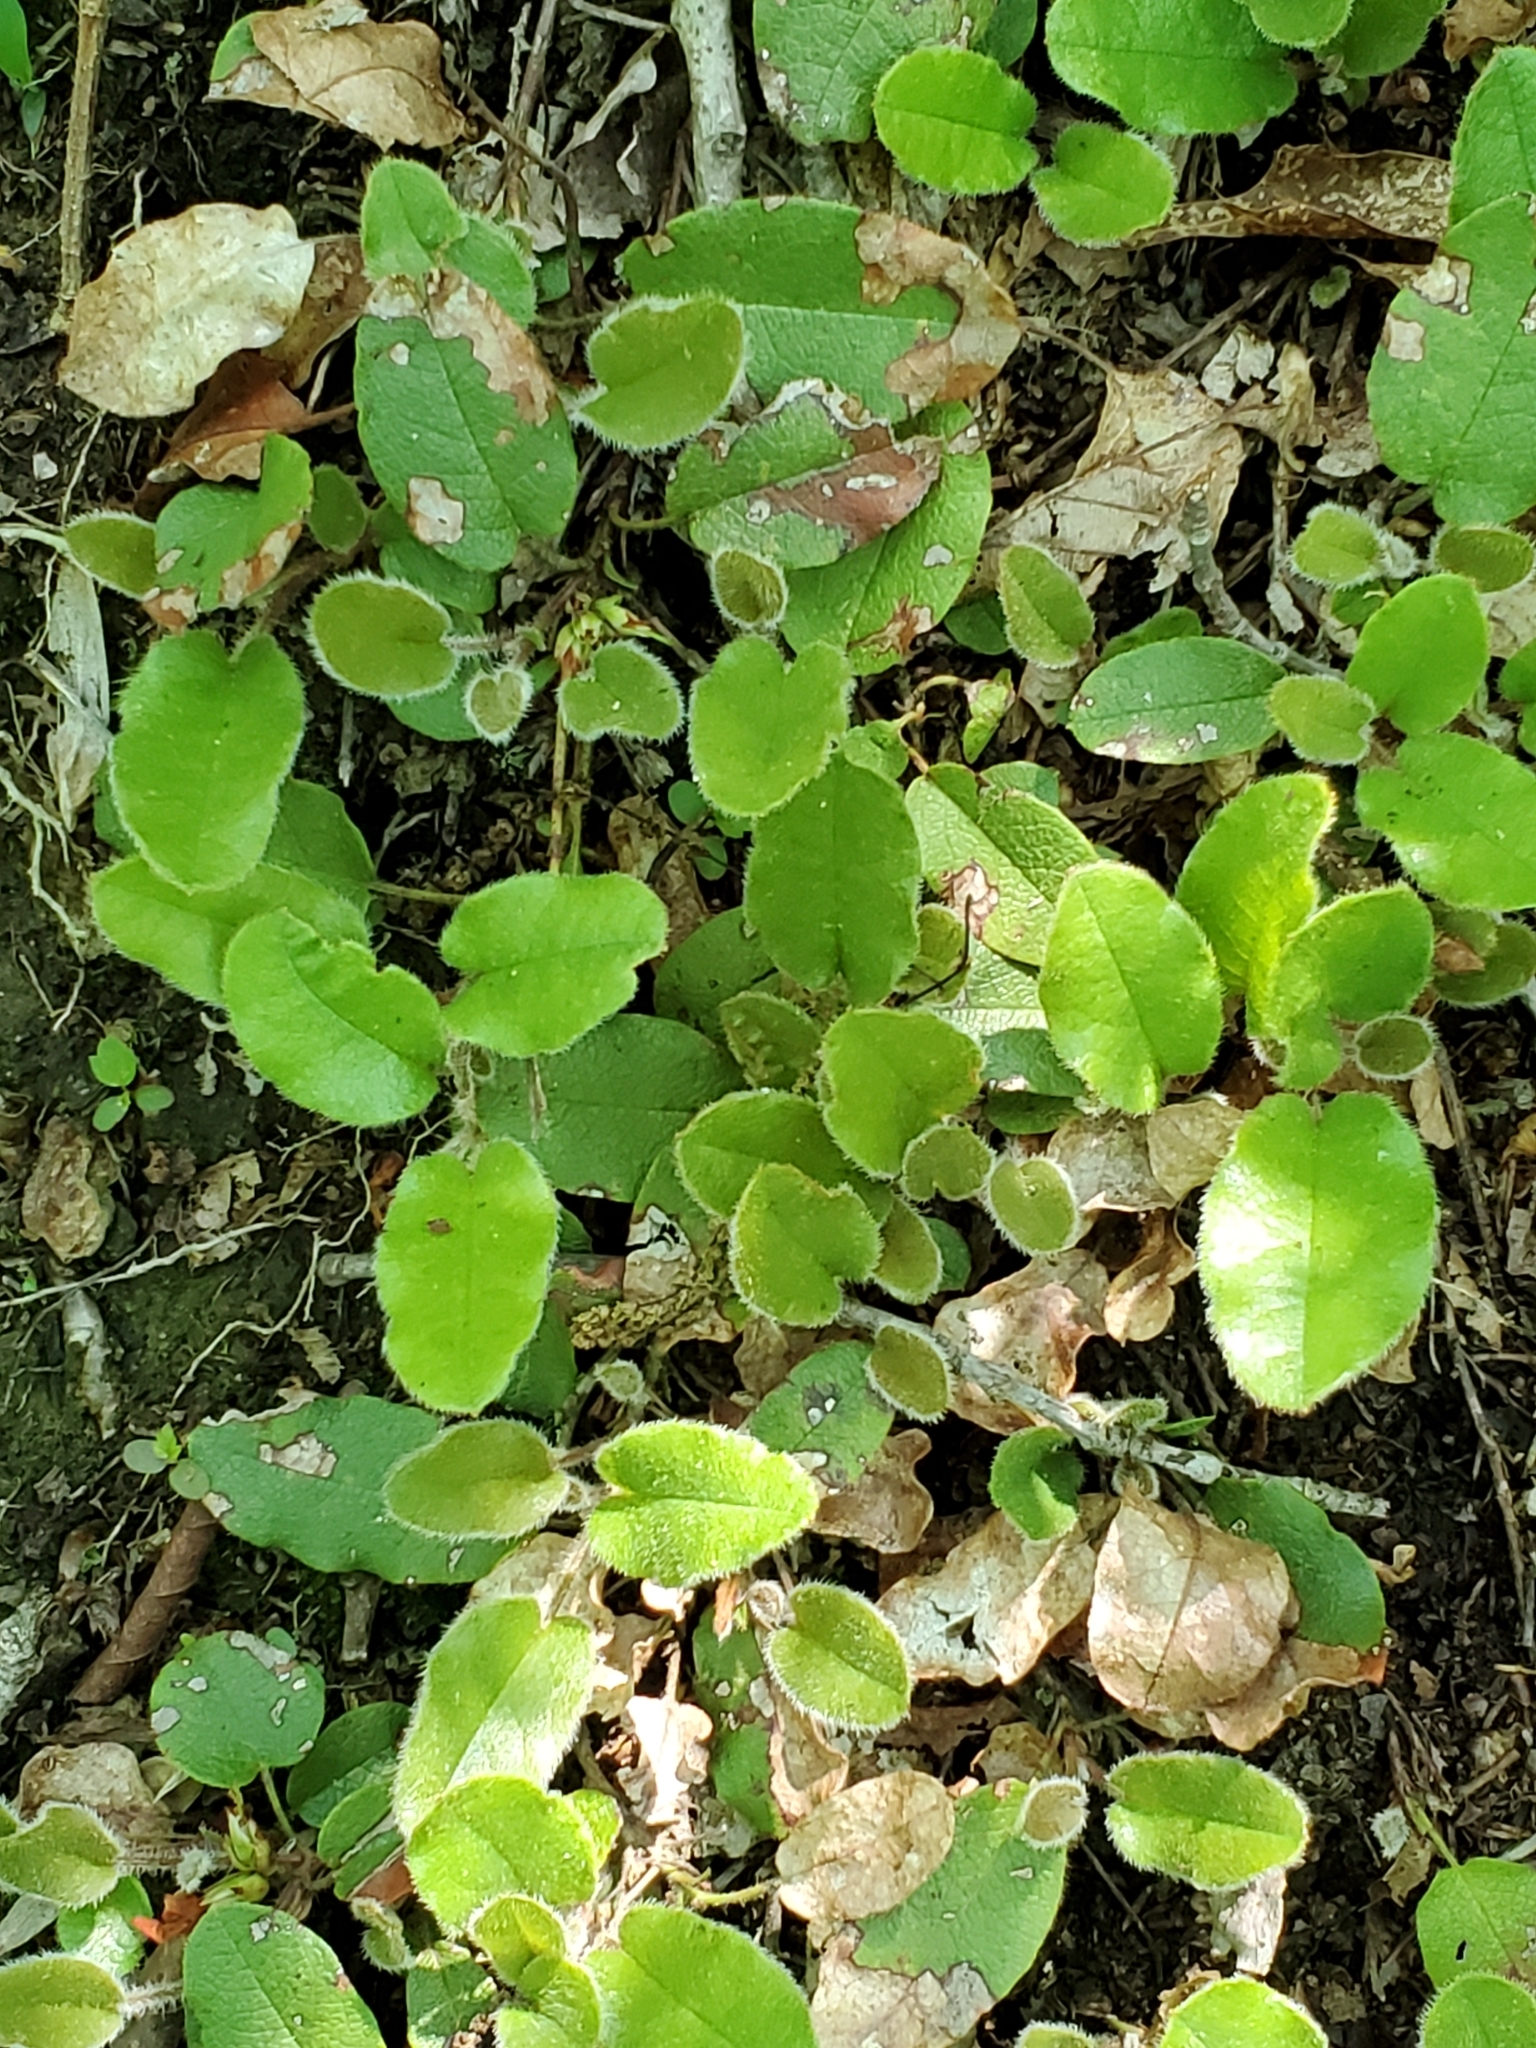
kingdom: Plantae
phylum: Tracheophyta
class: Magnoliopsida
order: Ericales
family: Ericaceae
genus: Epigaea
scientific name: Epigaea repens
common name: Gravelroot
